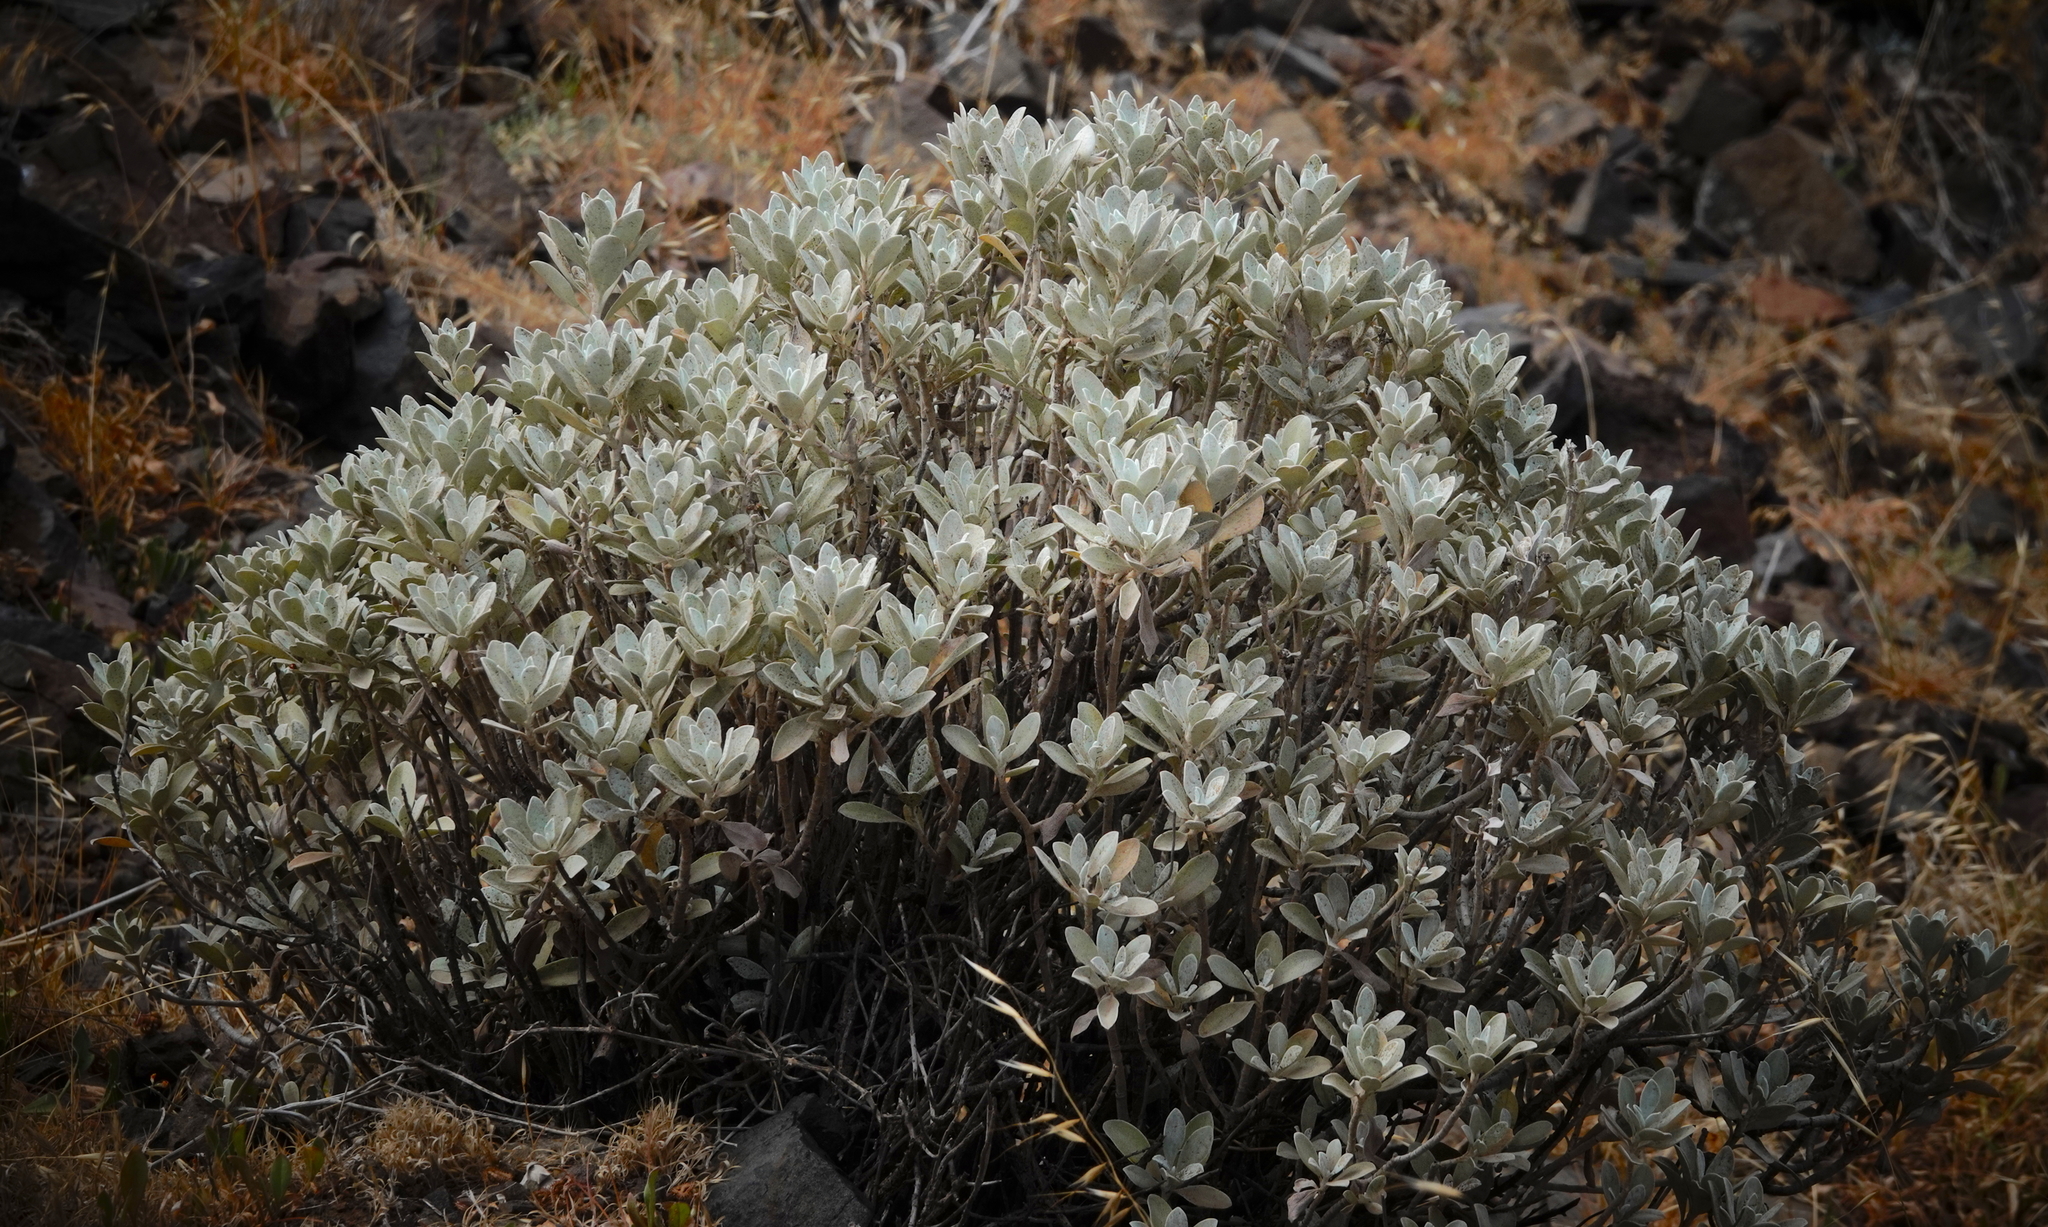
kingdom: Plantae
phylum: Tracheophyta
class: Magnoliopsida
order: Asterales
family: Asteraceae
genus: Helichrysum
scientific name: Helichrysum obconicum
